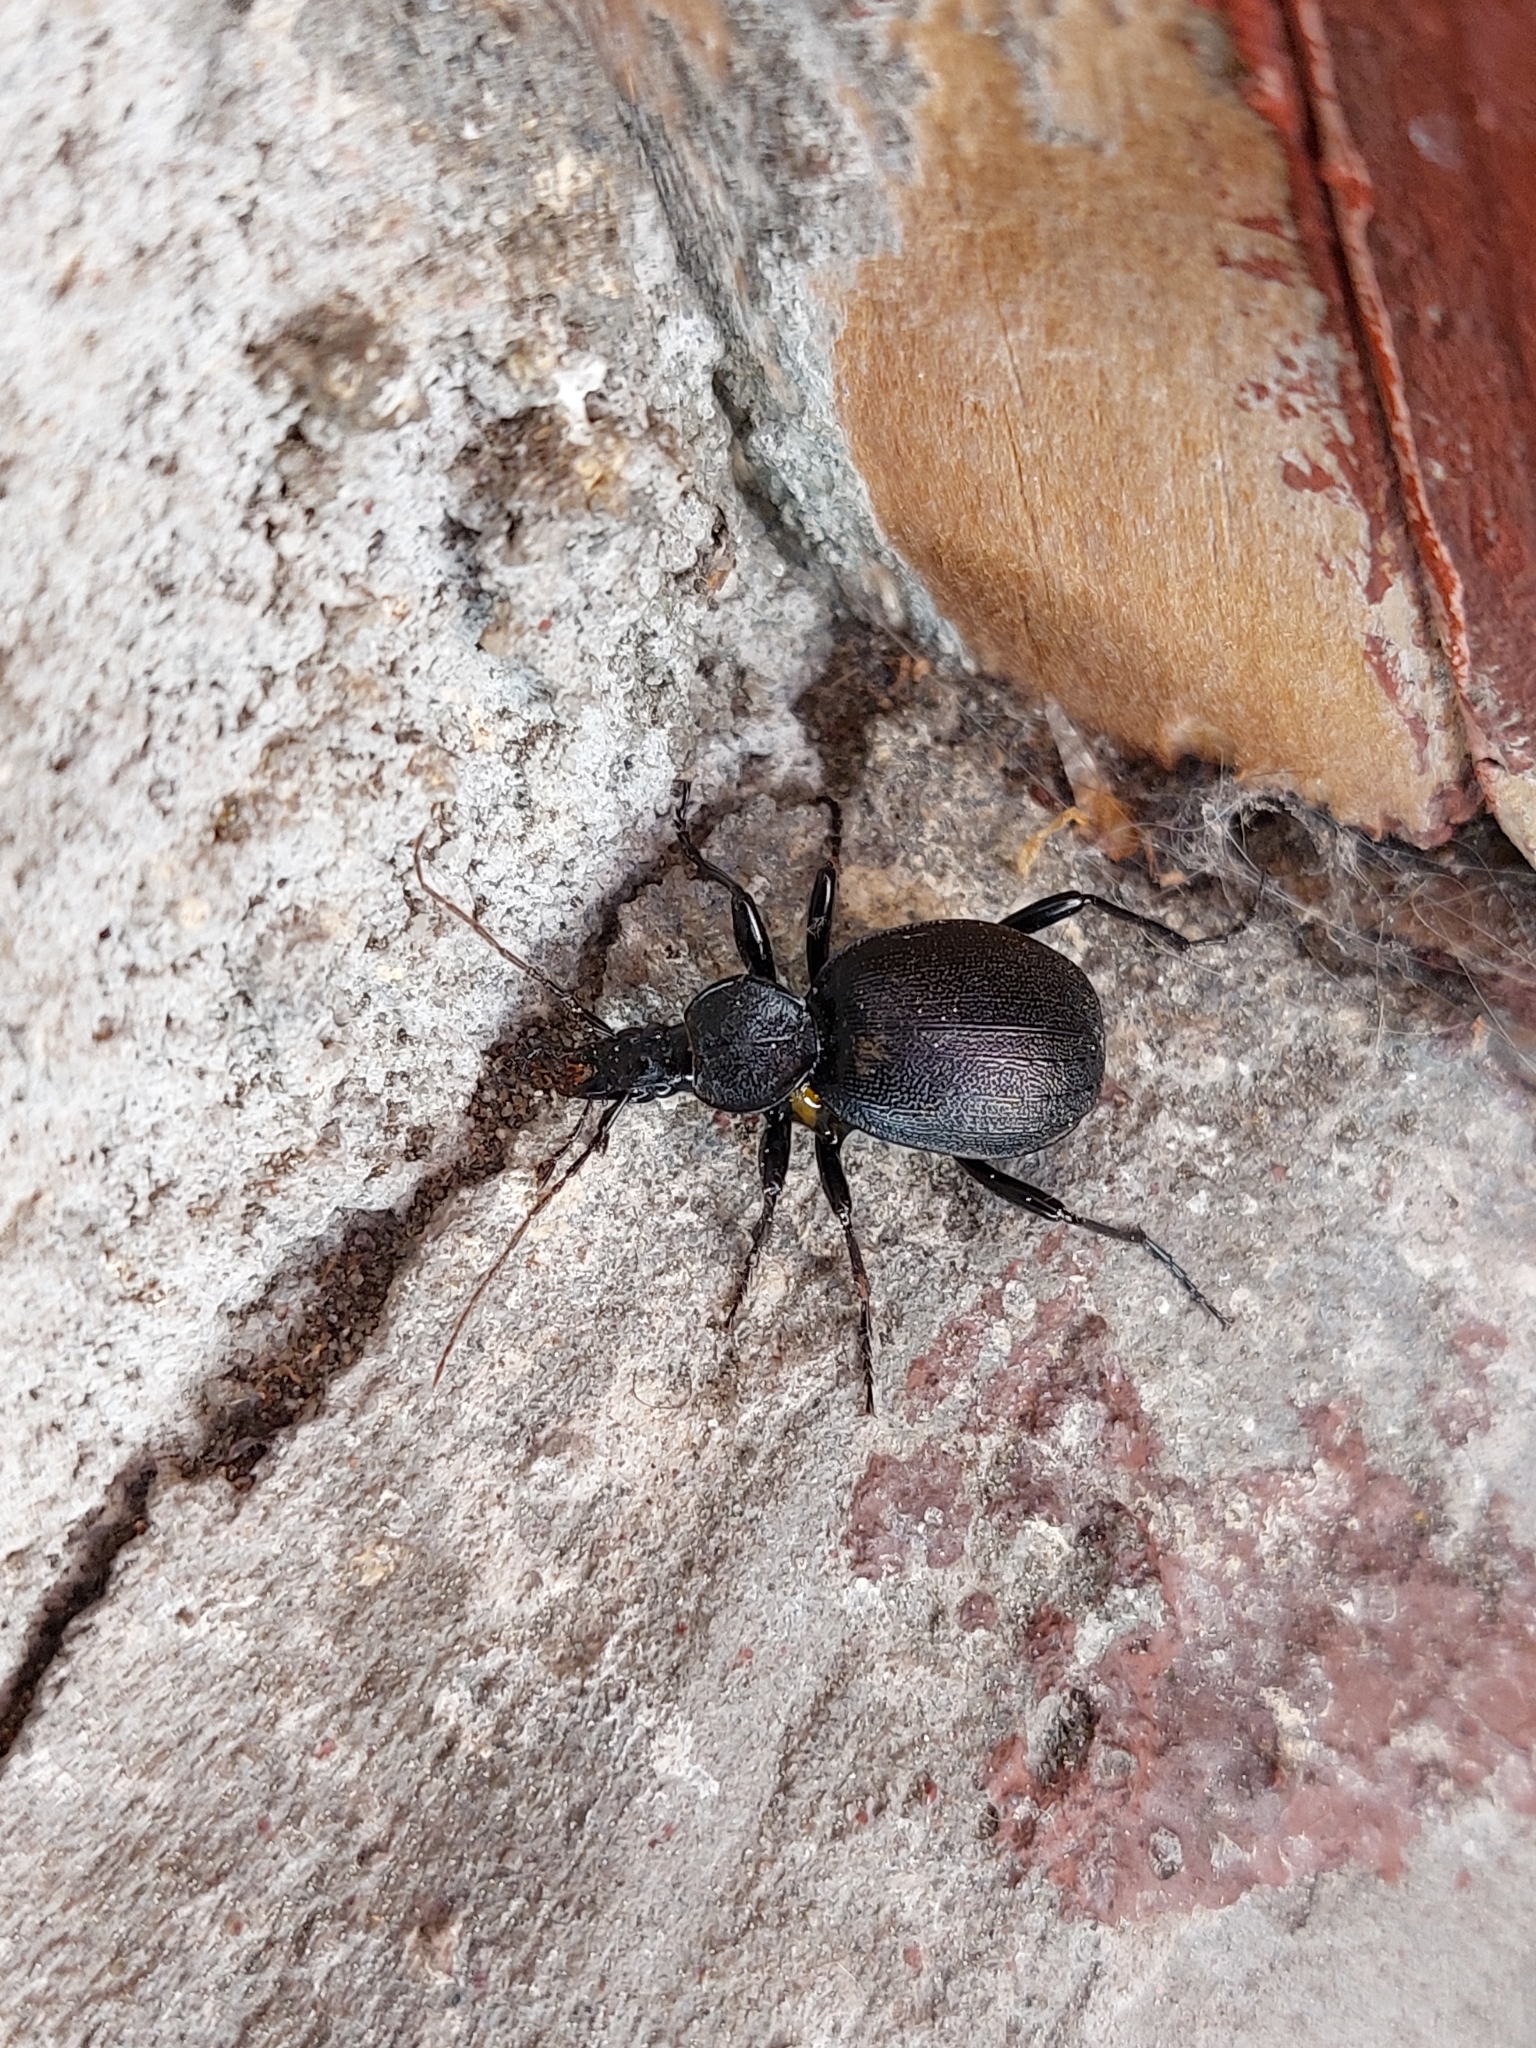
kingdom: Animalia
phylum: Arthropoda
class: Insecta
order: Coleoptera
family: Carabidae
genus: Cychrus
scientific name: Cychrus caraboides
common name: Snail hunter
